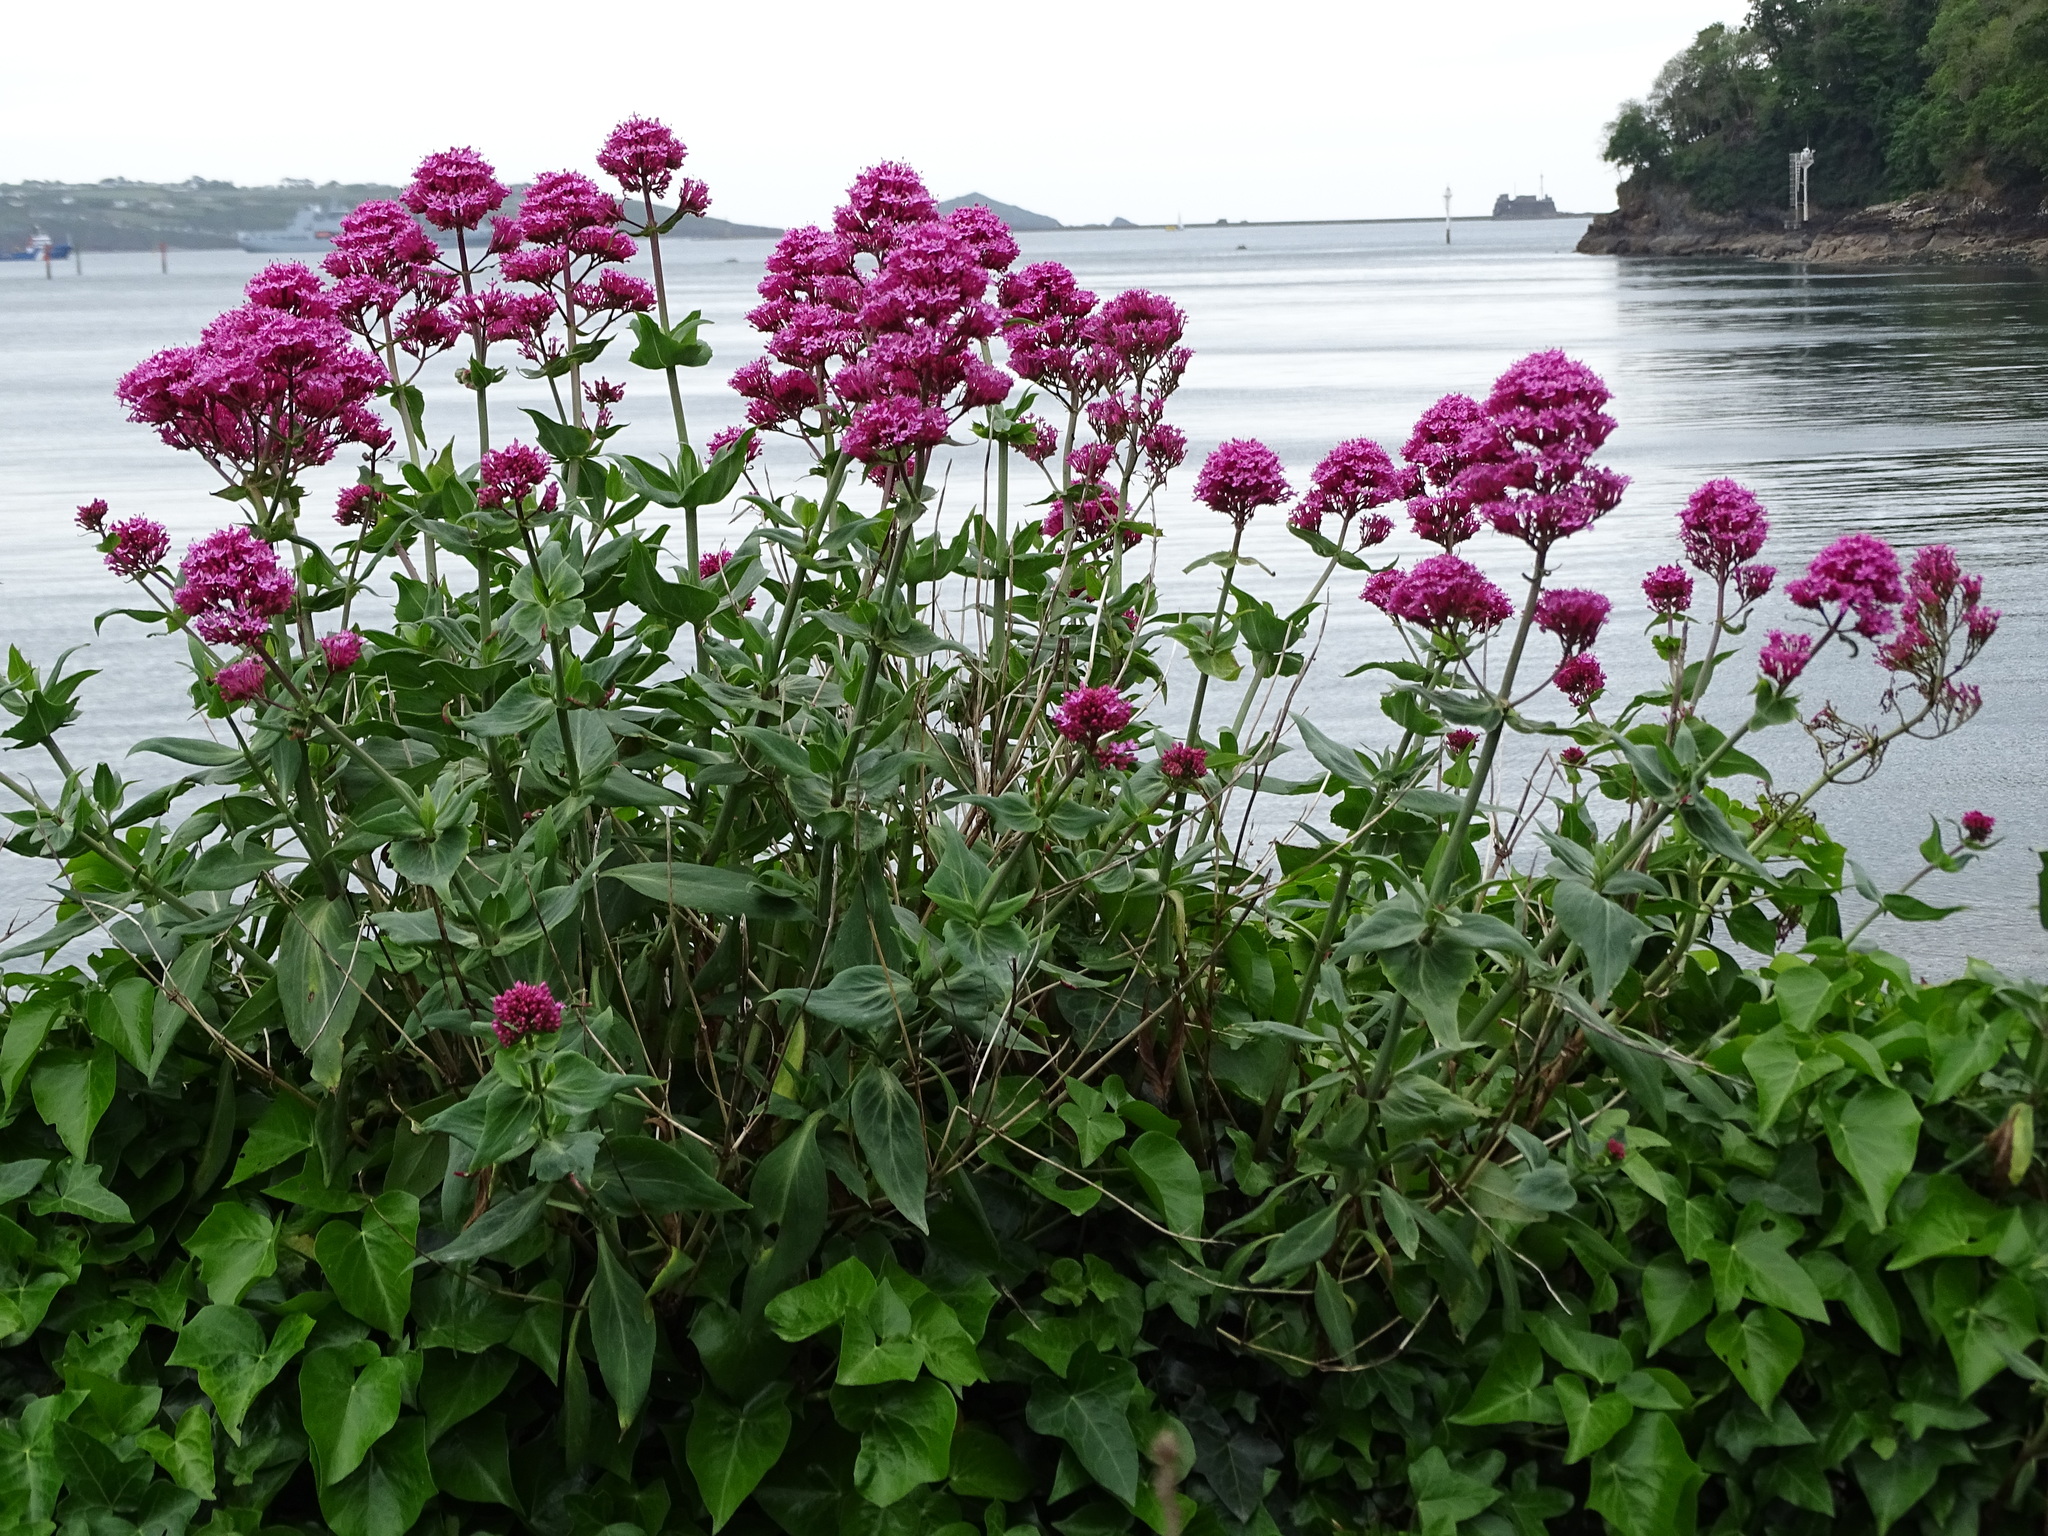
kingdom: Plantae
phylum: Tracheophyta
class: Magnoliopsida
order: Dipsacales
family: Caprifoliaceae
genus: Centranthus
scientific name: Centranthus ruber
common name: Red valerian
